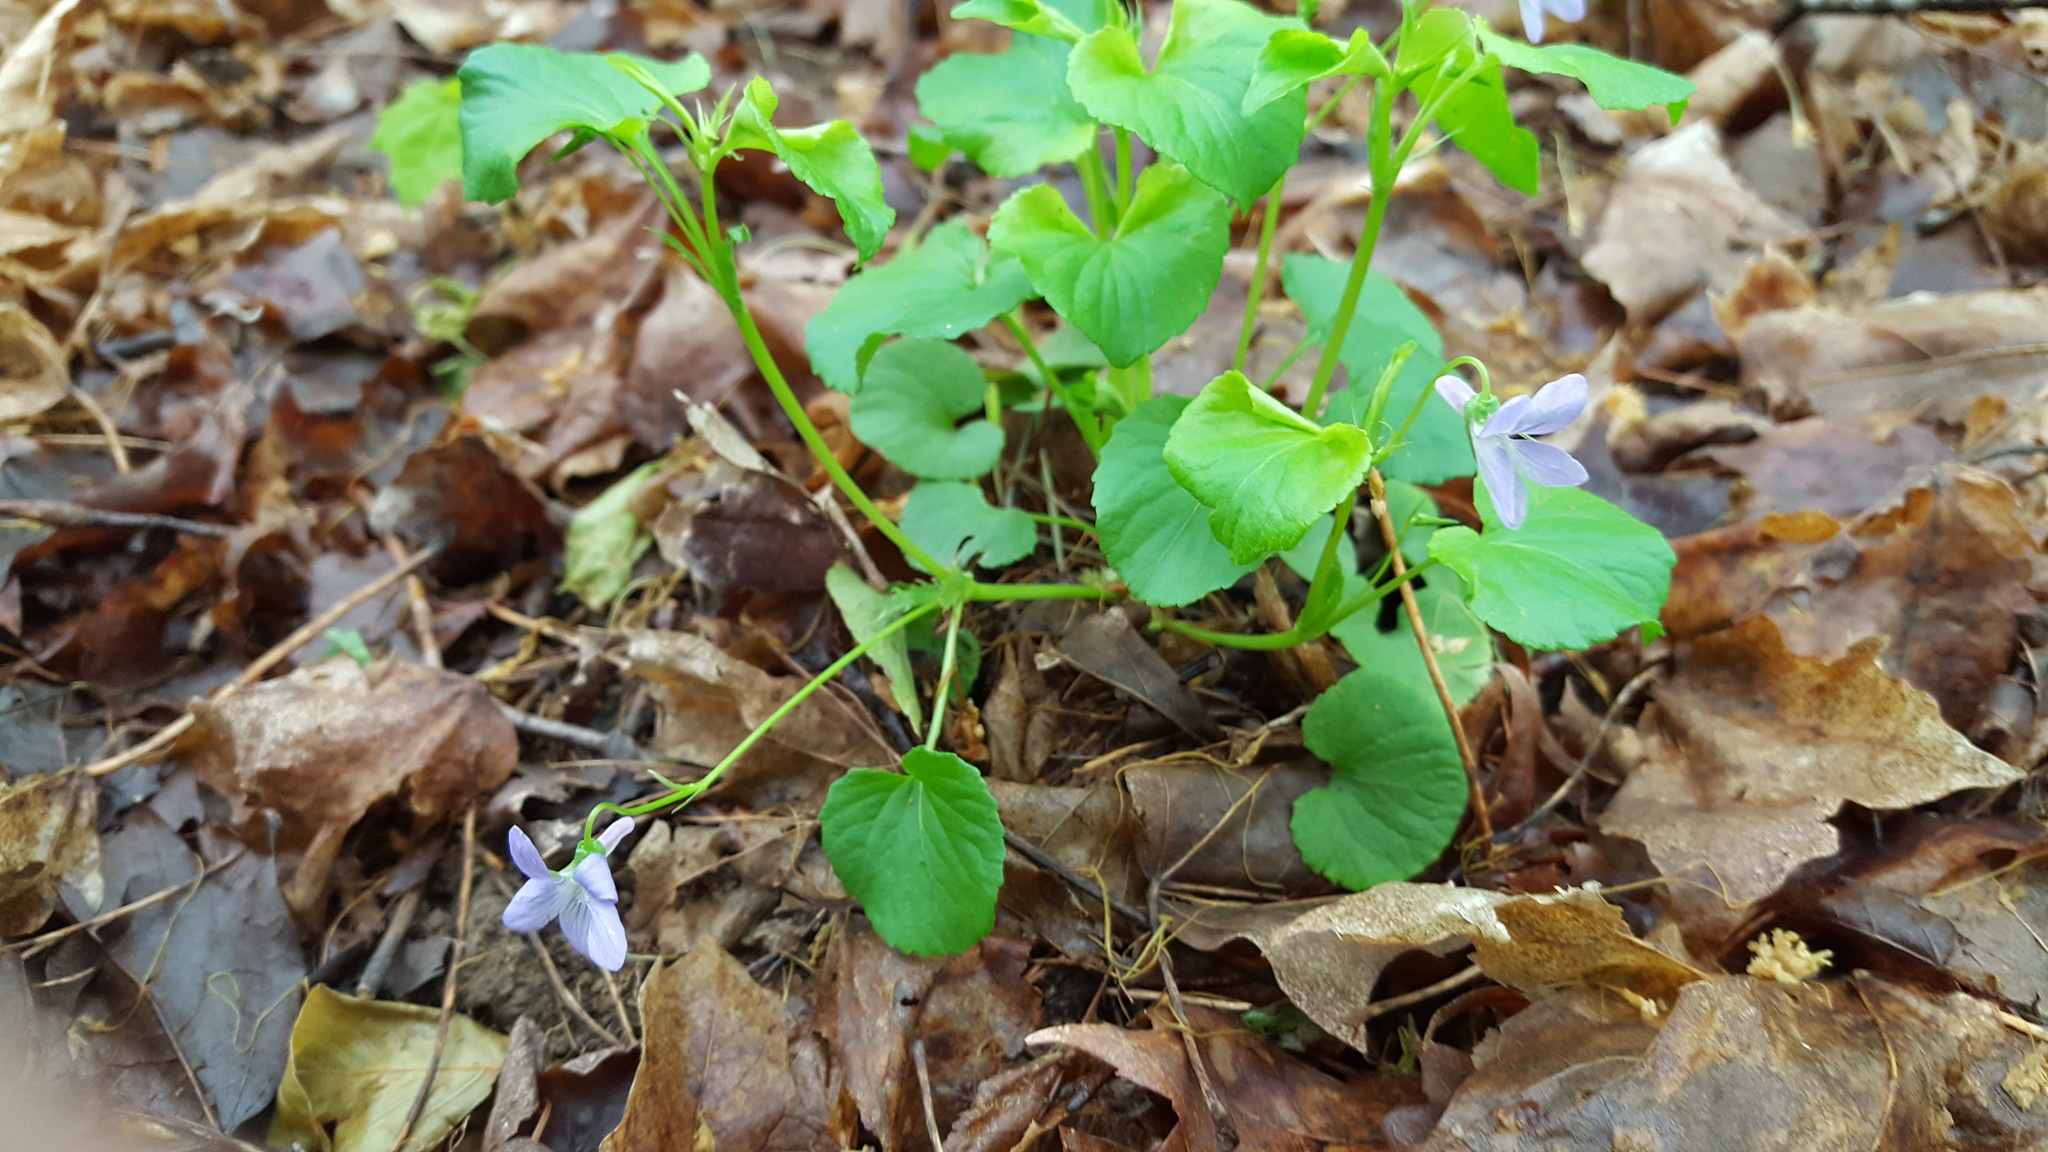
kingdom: Plantae
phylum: Tracheophyta
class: Magnoliopsida
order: Malpighiales
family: Violaceae
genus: Viola
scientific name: Viola labradorica
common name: Labrador violet
